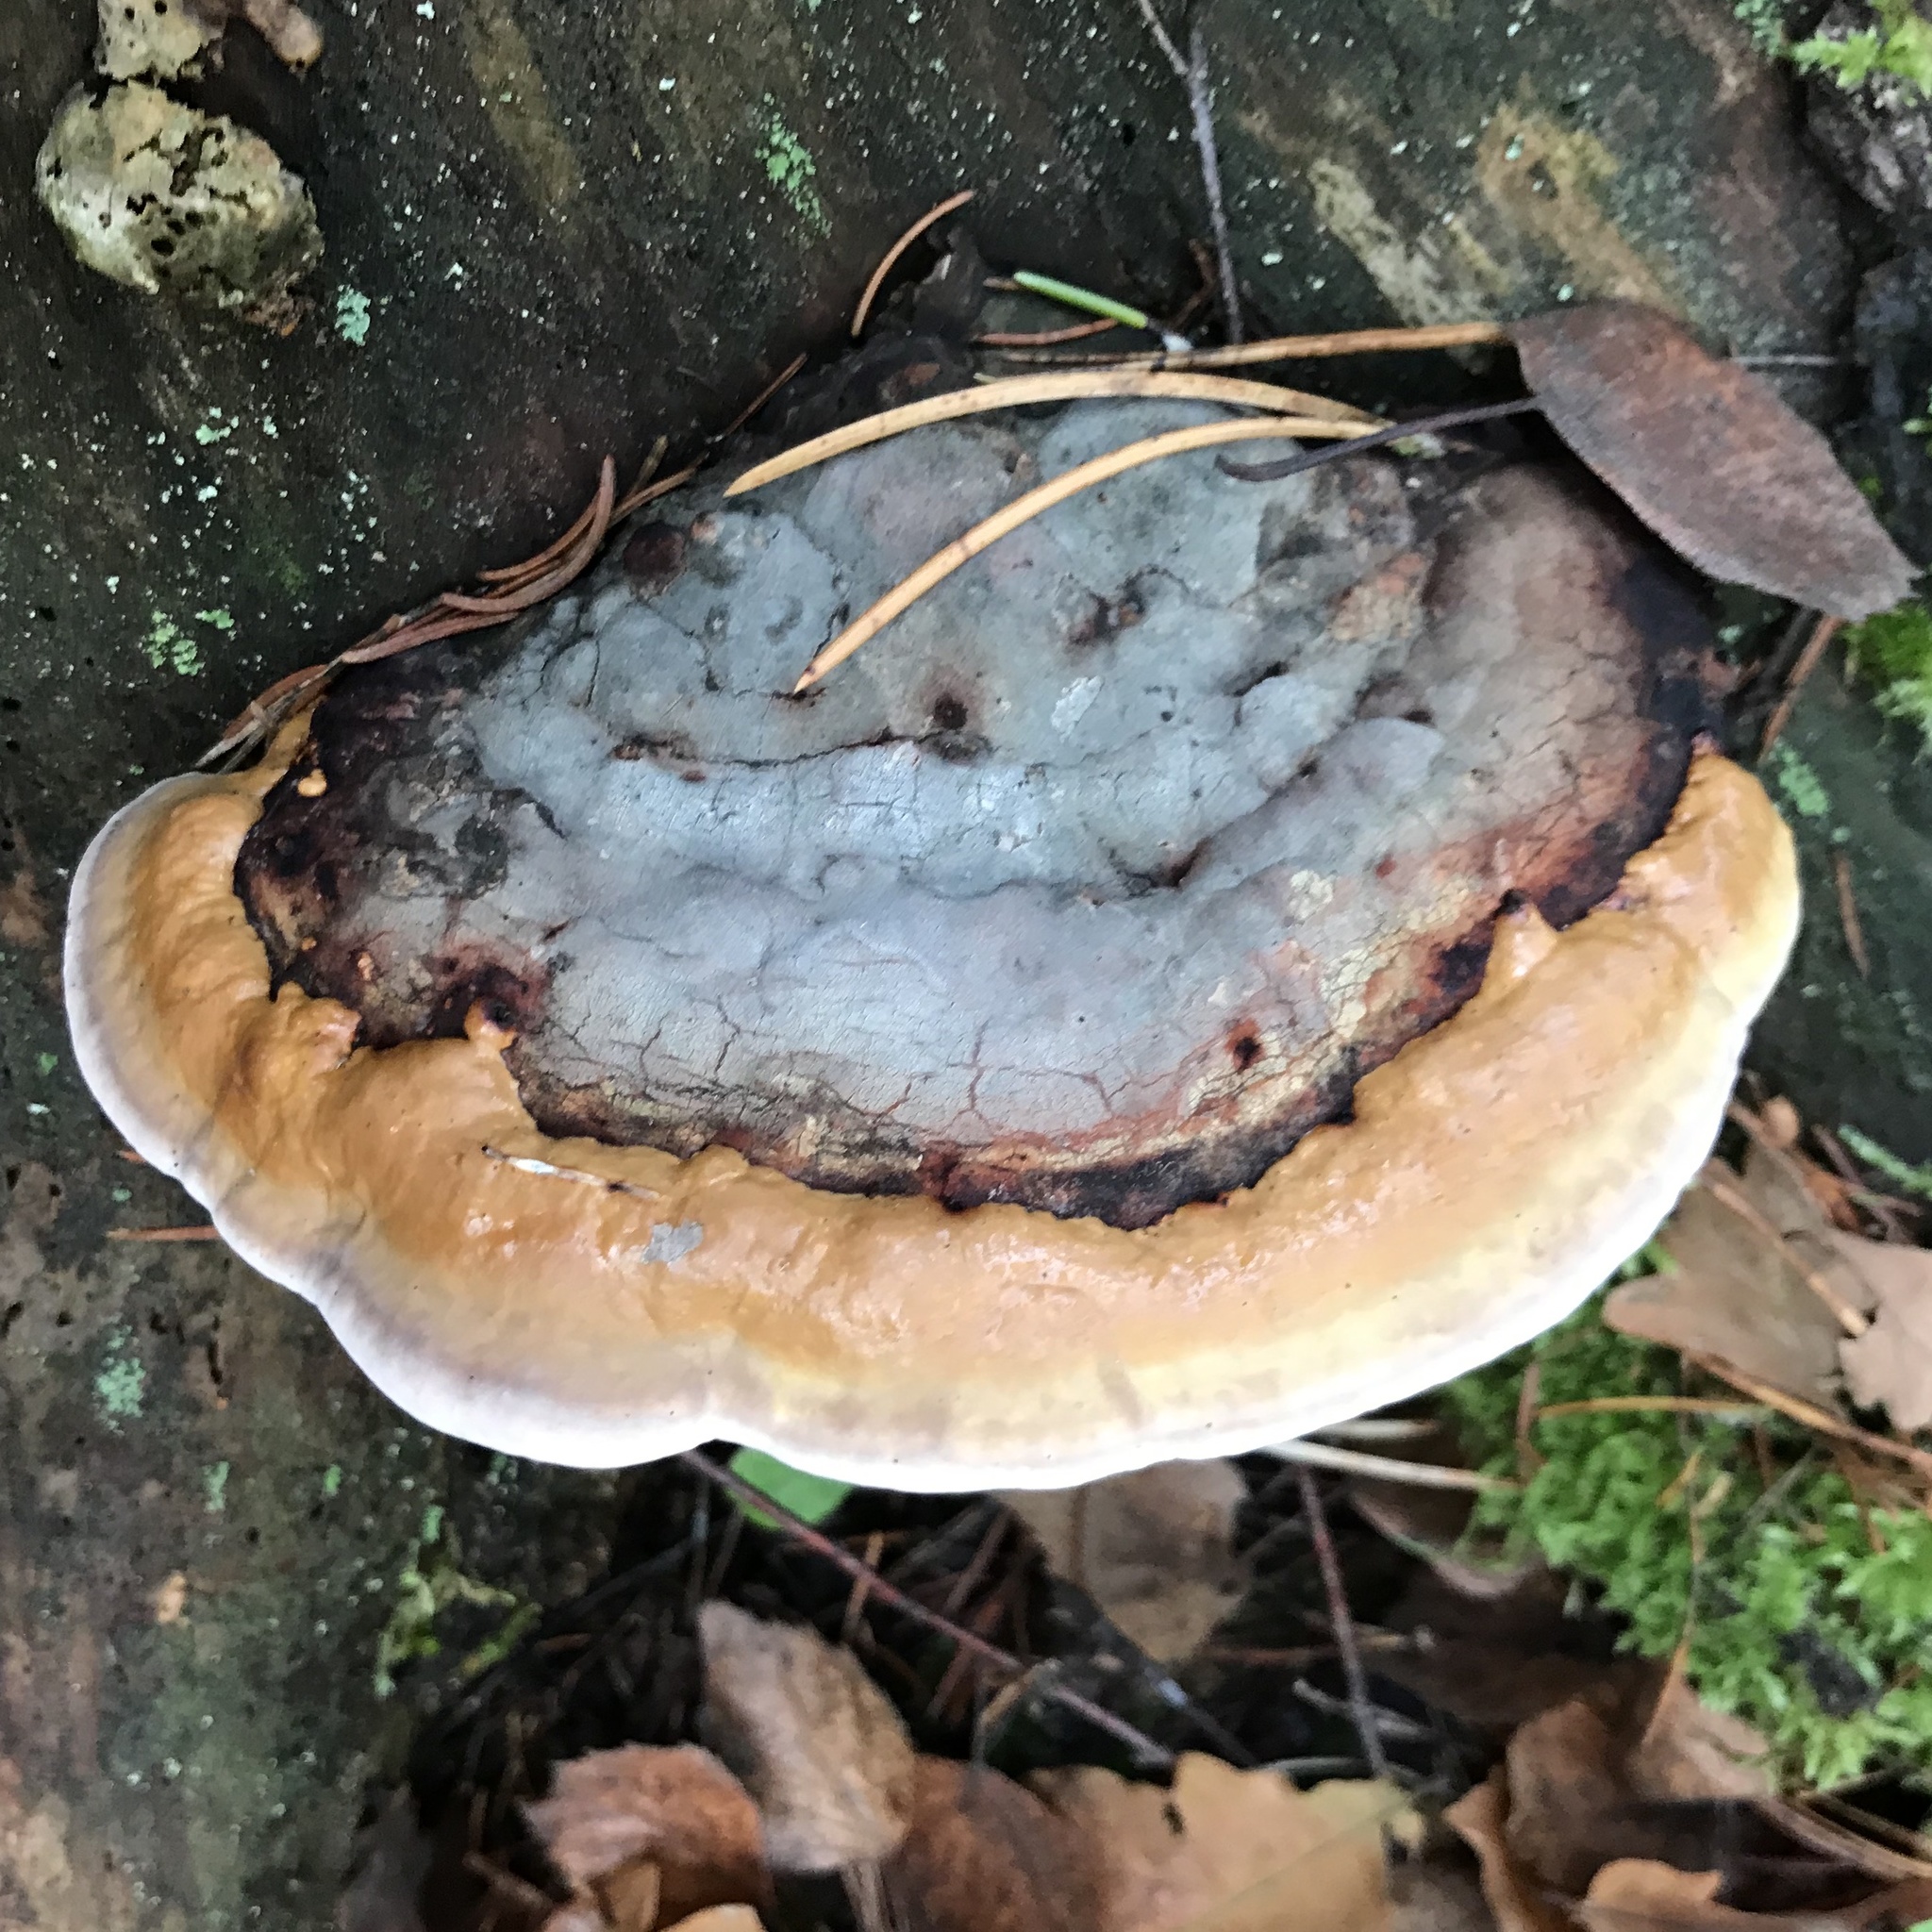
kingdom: Fungi
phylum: Basidiomycota
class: Agaricomycetes
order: Polyporales
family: Fomitopsidaceae
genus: Fomitopsis
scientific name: Fomitopsis pinicola
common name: Red-belted bracket
